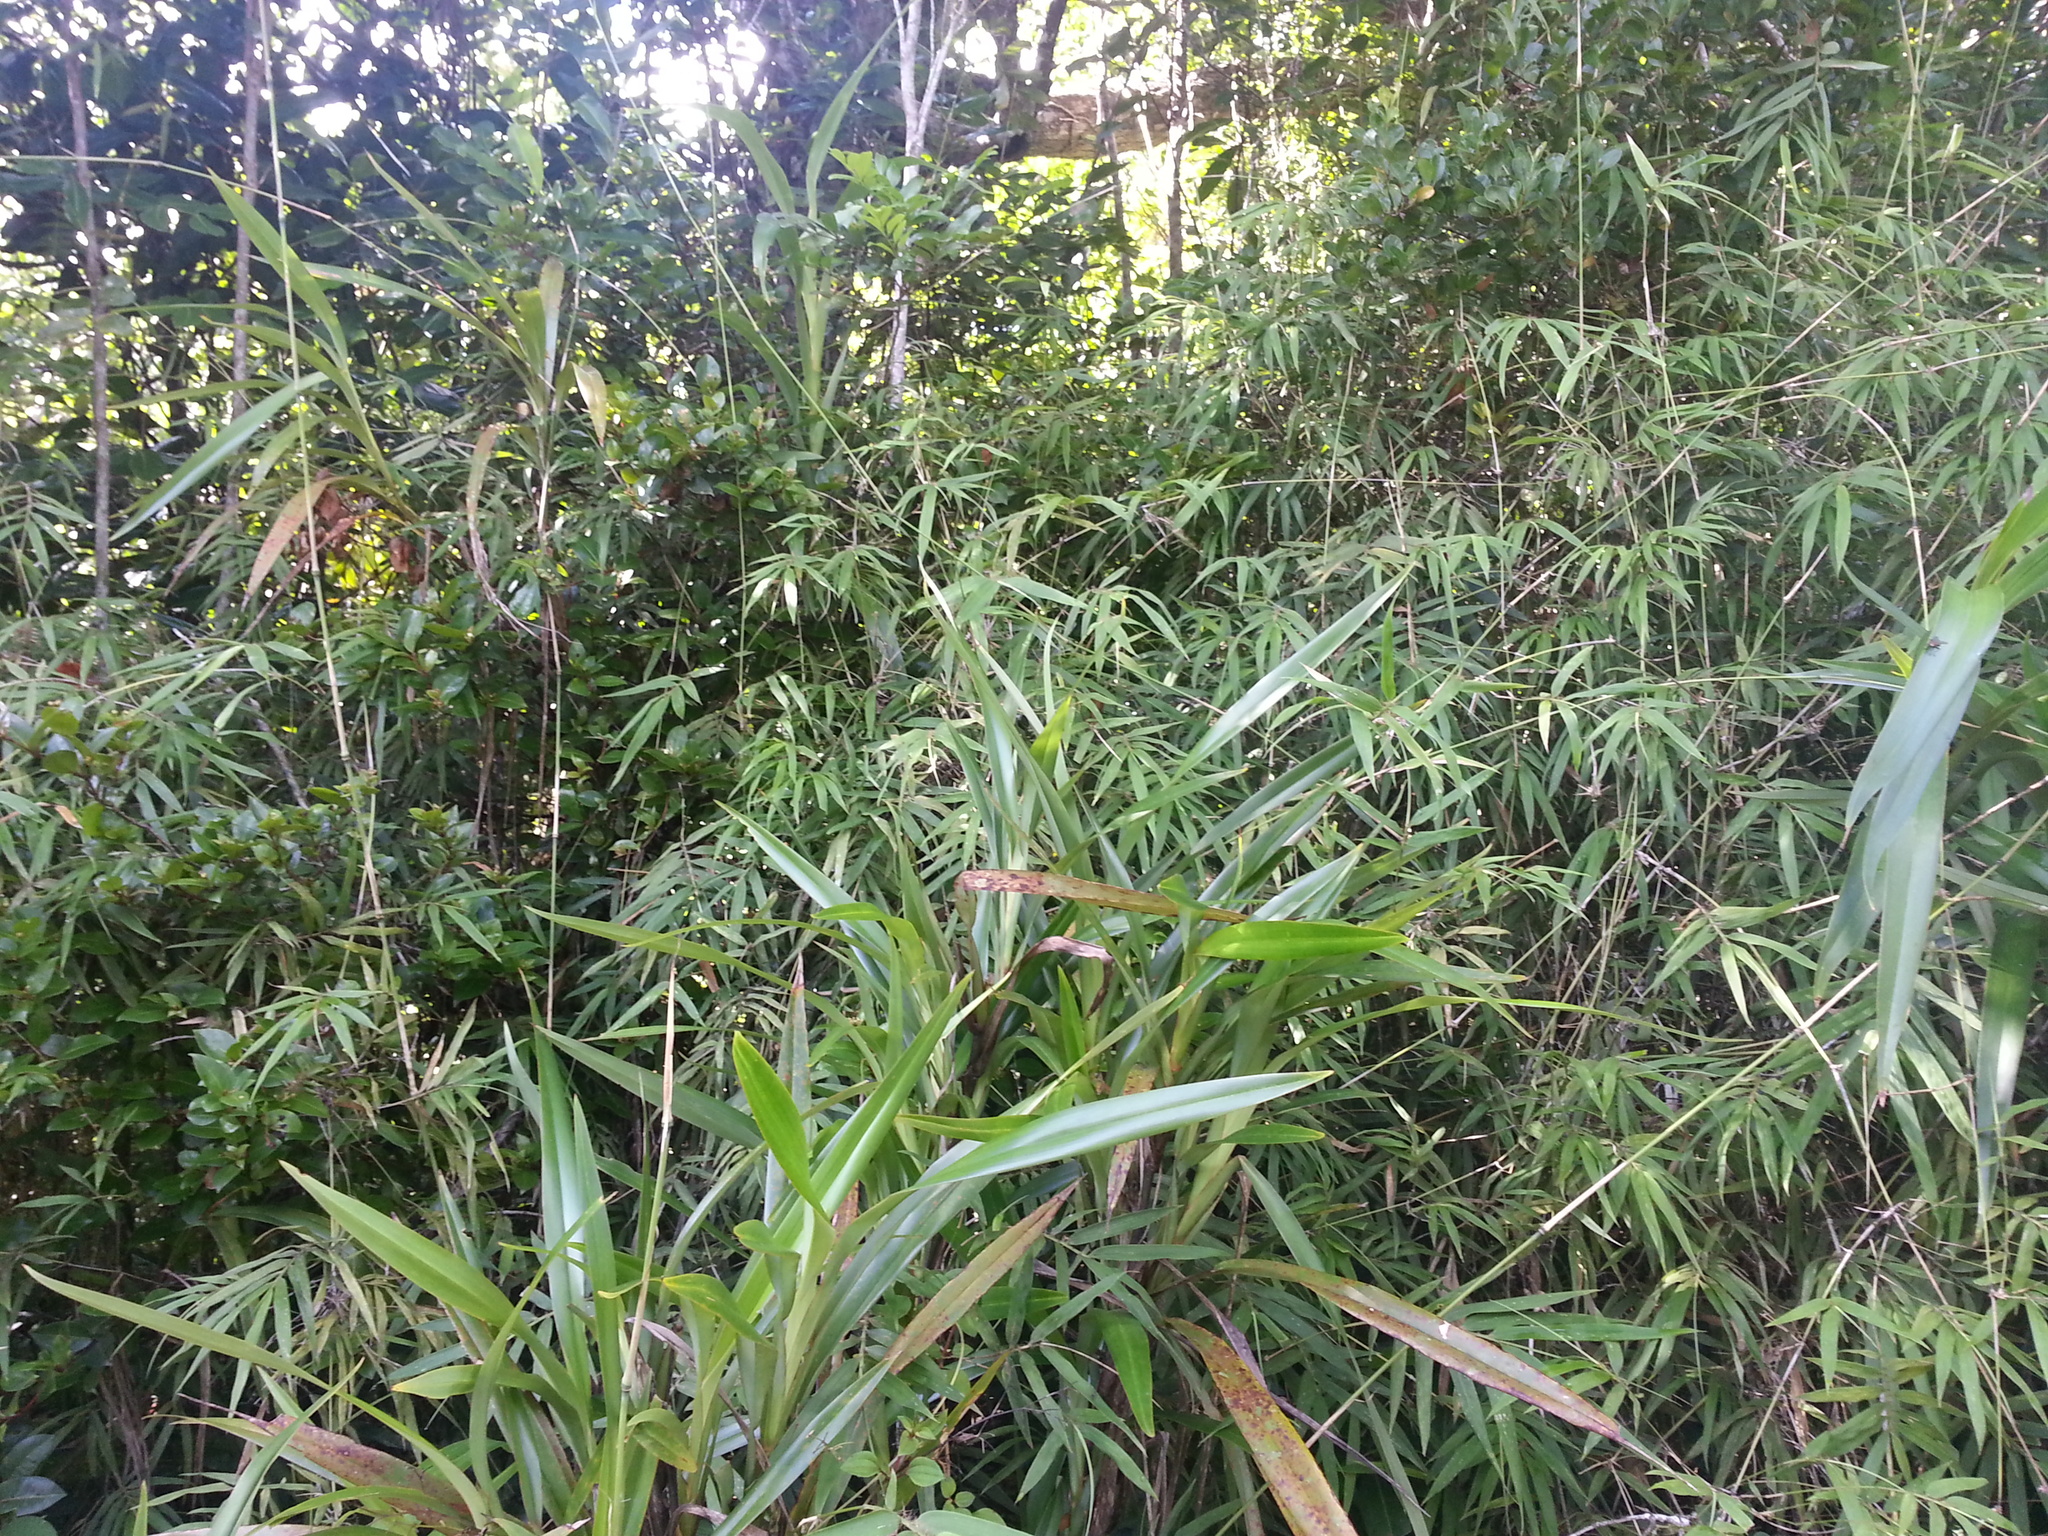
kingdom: Plantae
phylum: Tracheophyta
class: Liliopsida
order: Poales
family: Poaceae
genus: Sirochloa
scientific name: Sirochloa parvifolia
